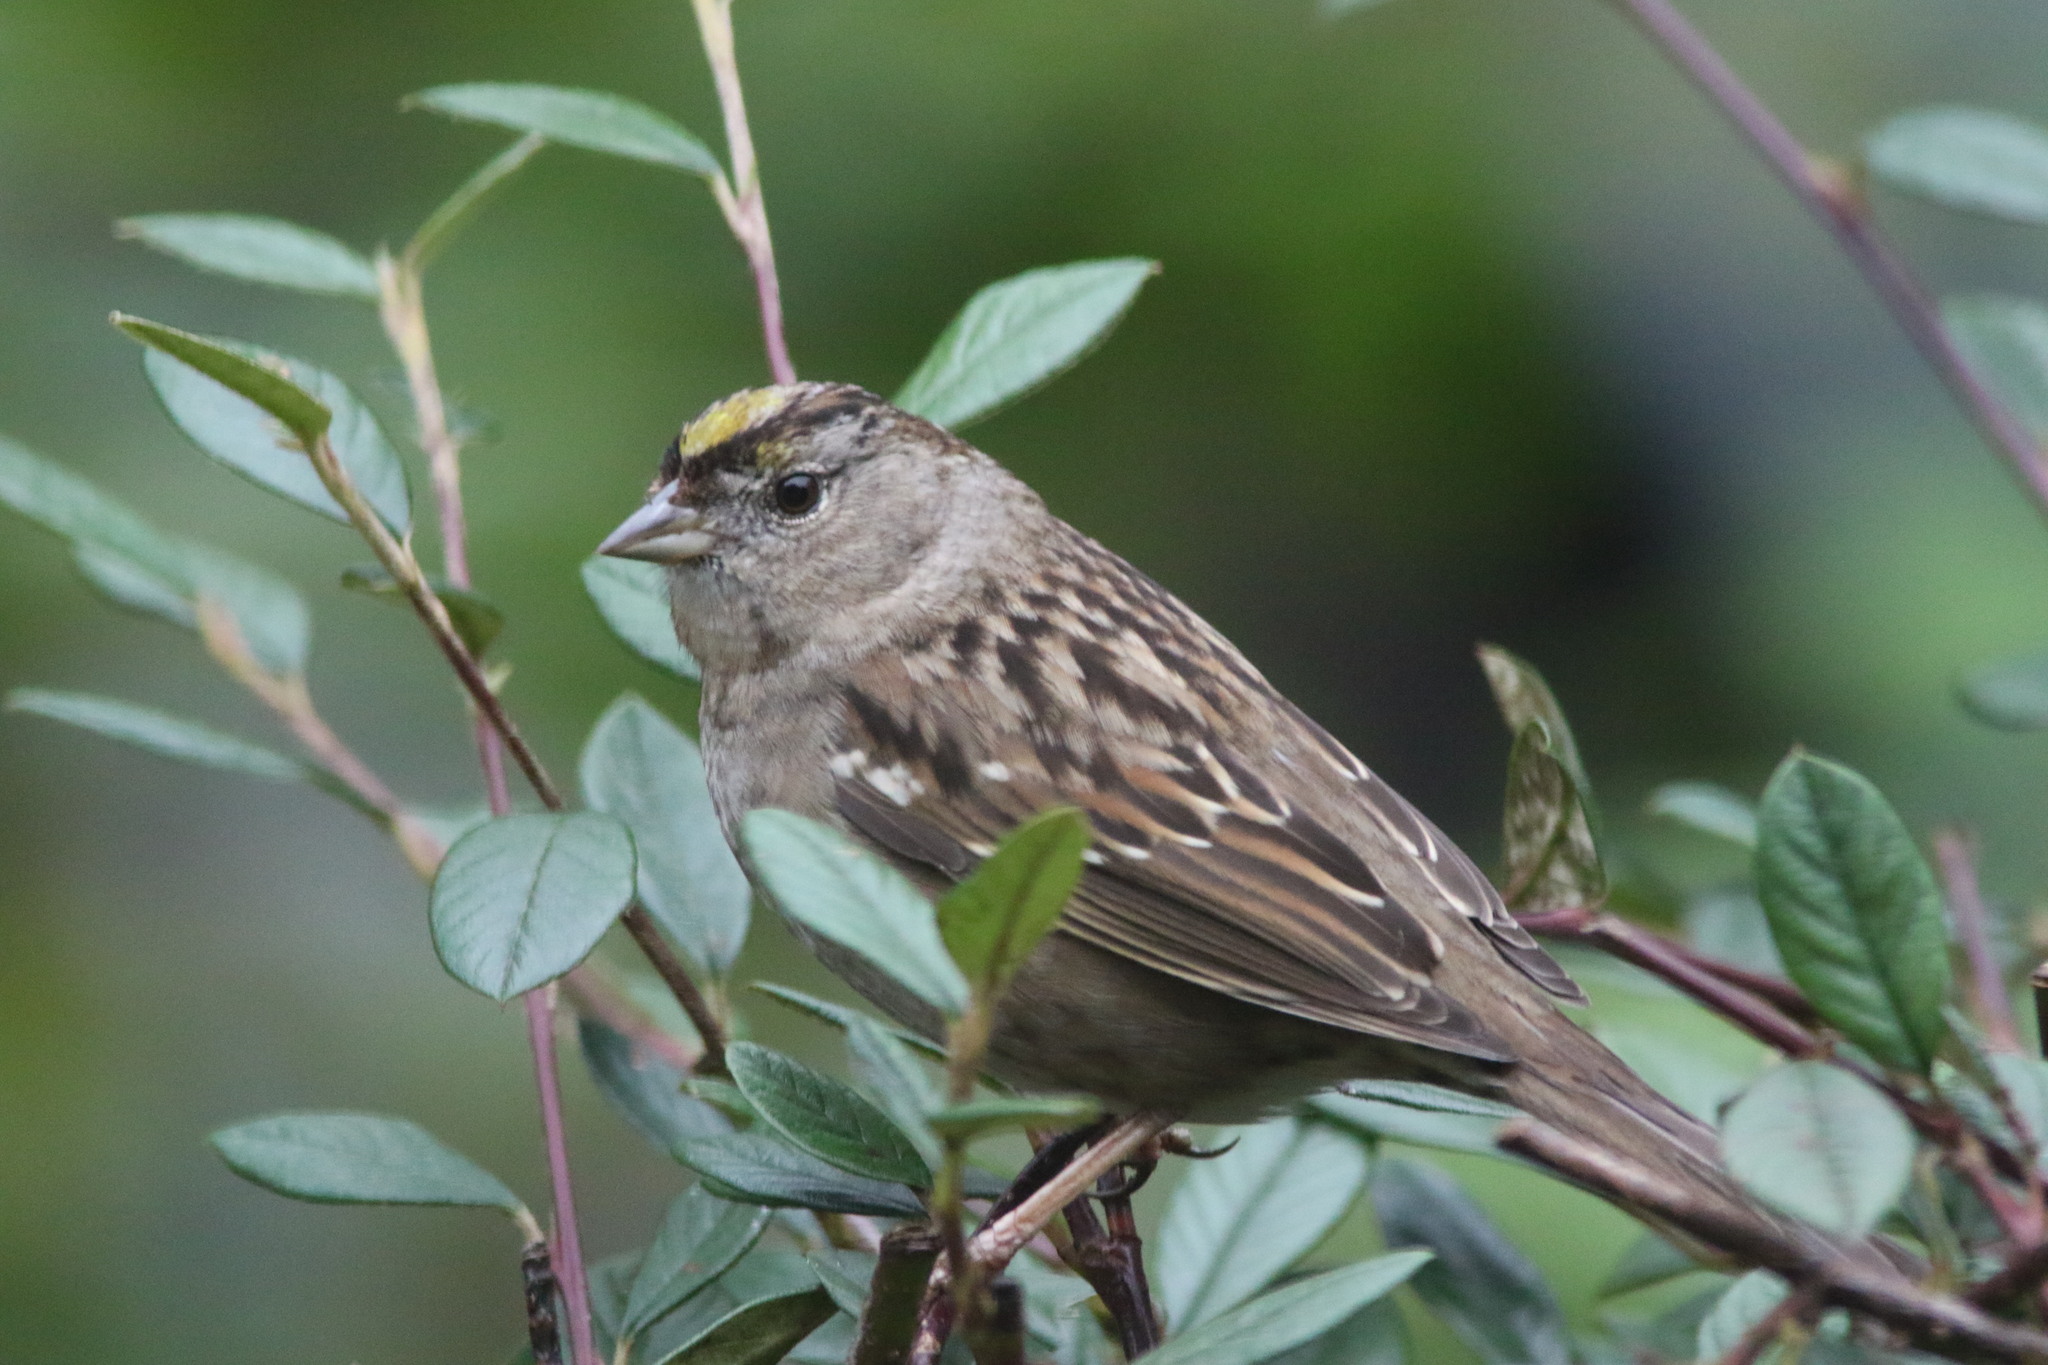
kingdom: Animalia
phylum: Chordata
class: Aves
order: Passeriformes
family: Passerellidae
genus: Zonotrichia
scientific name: Zonotrichia atricapilla
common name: Golden-crowned sparrow
